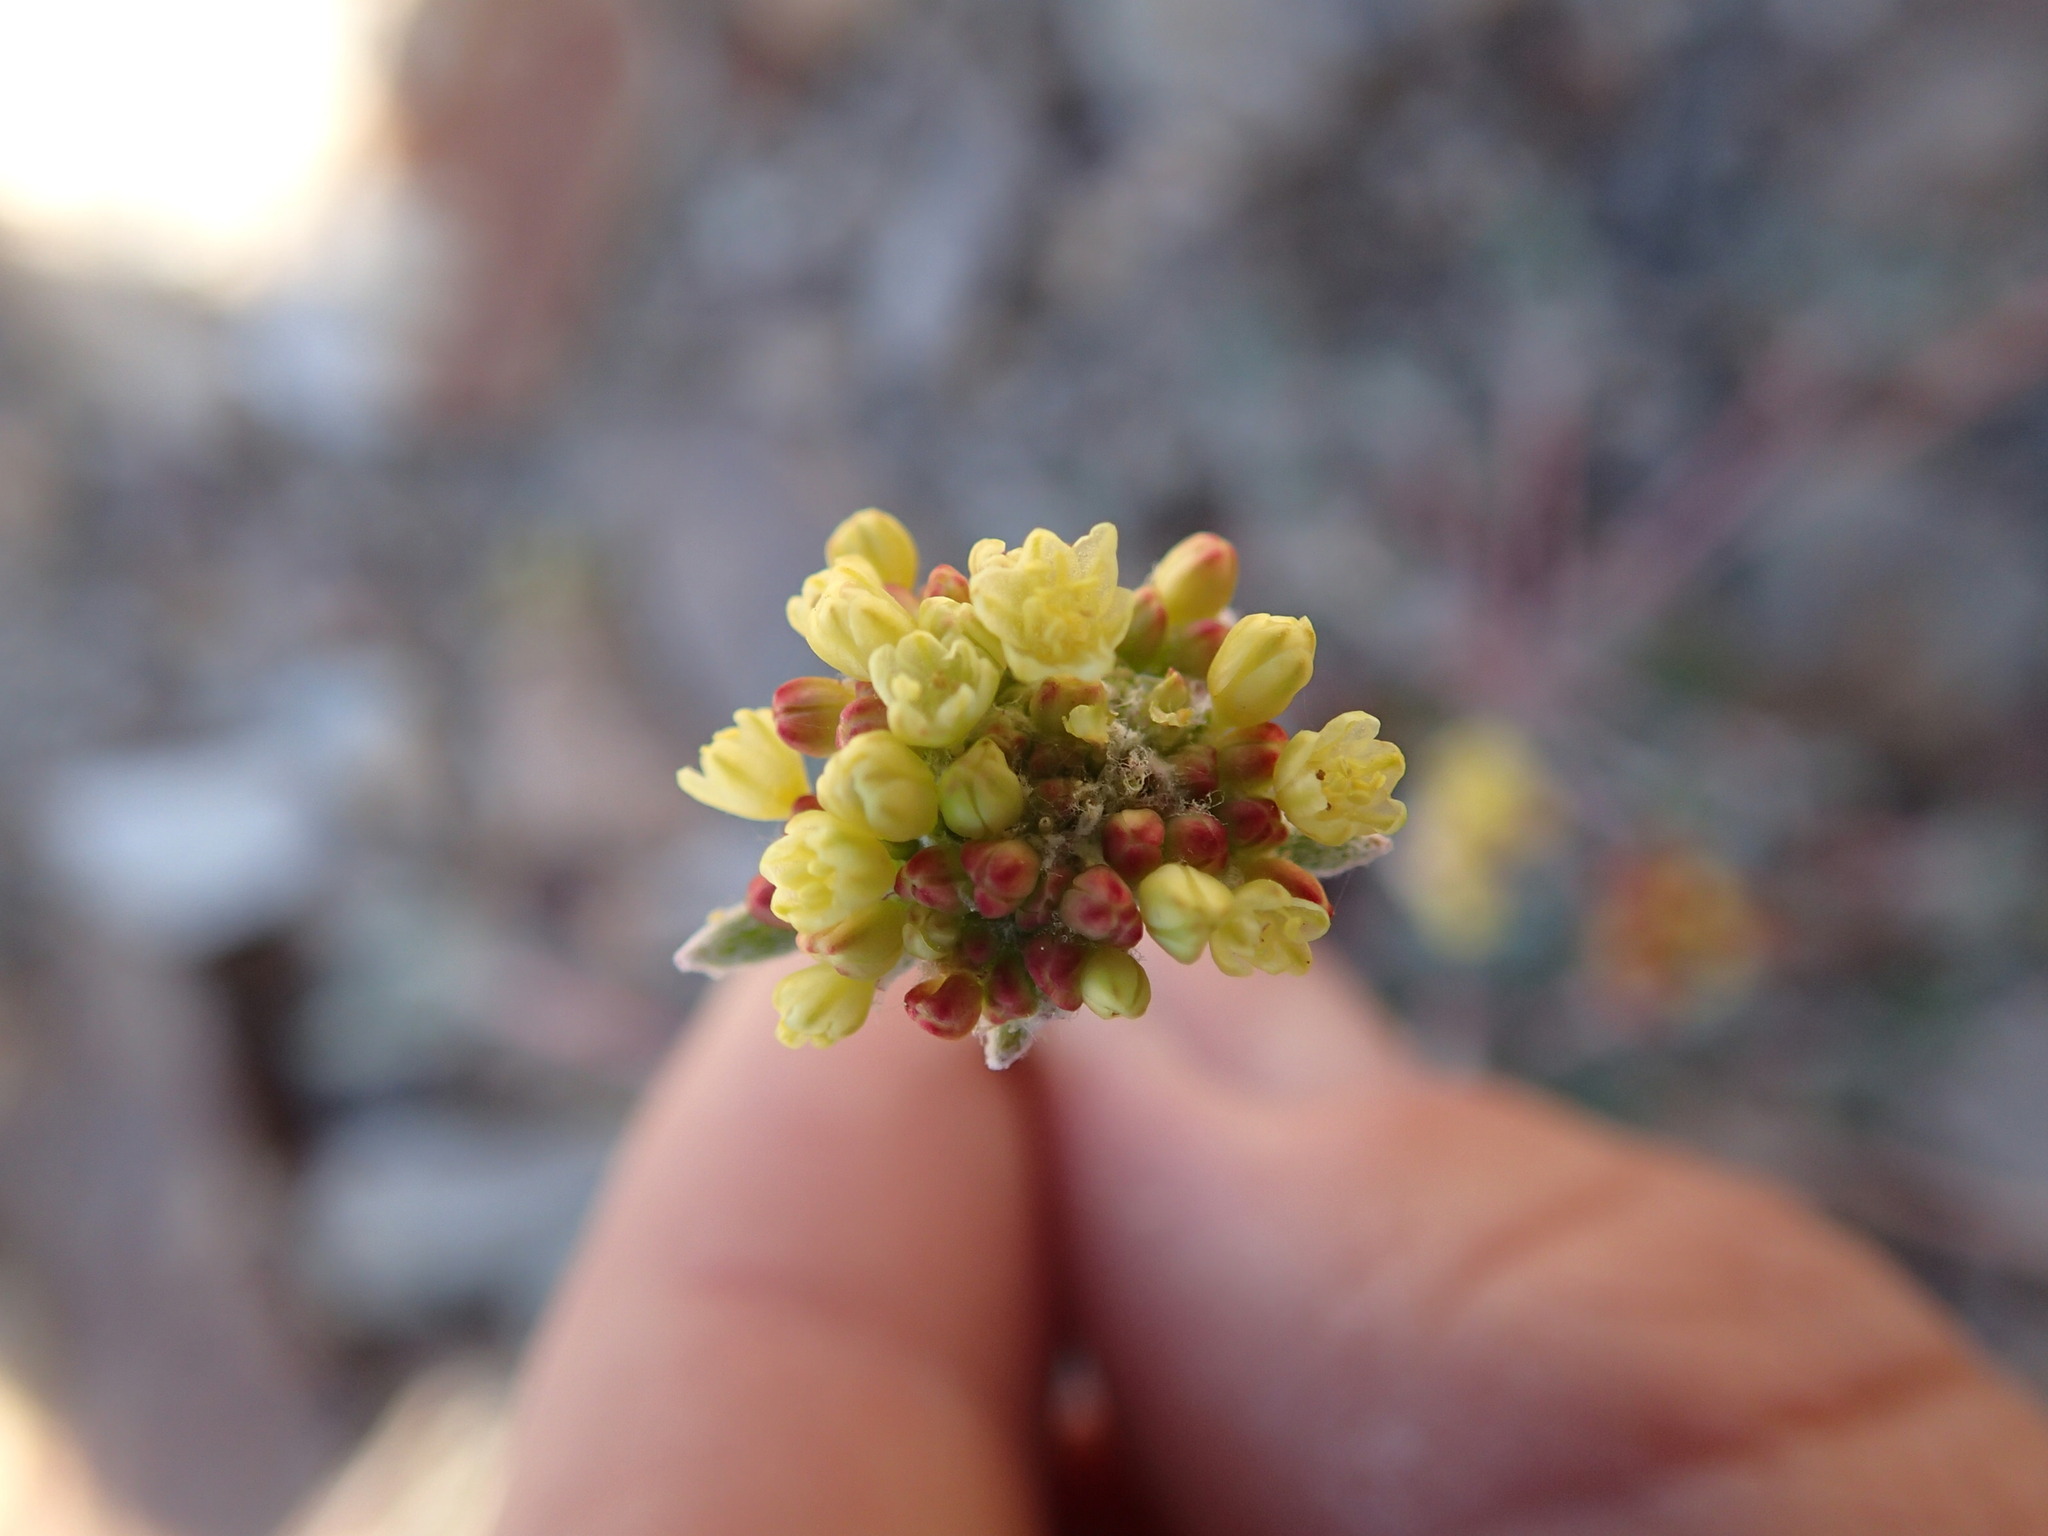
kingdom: Plantae
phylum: Tracheophyta
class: Magnoliopsida
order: Caryophyllales
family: Polygonaceae
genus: Eriogonum
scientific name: Eriogonum marifolium
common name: Marum-leaf wild buckwheat
